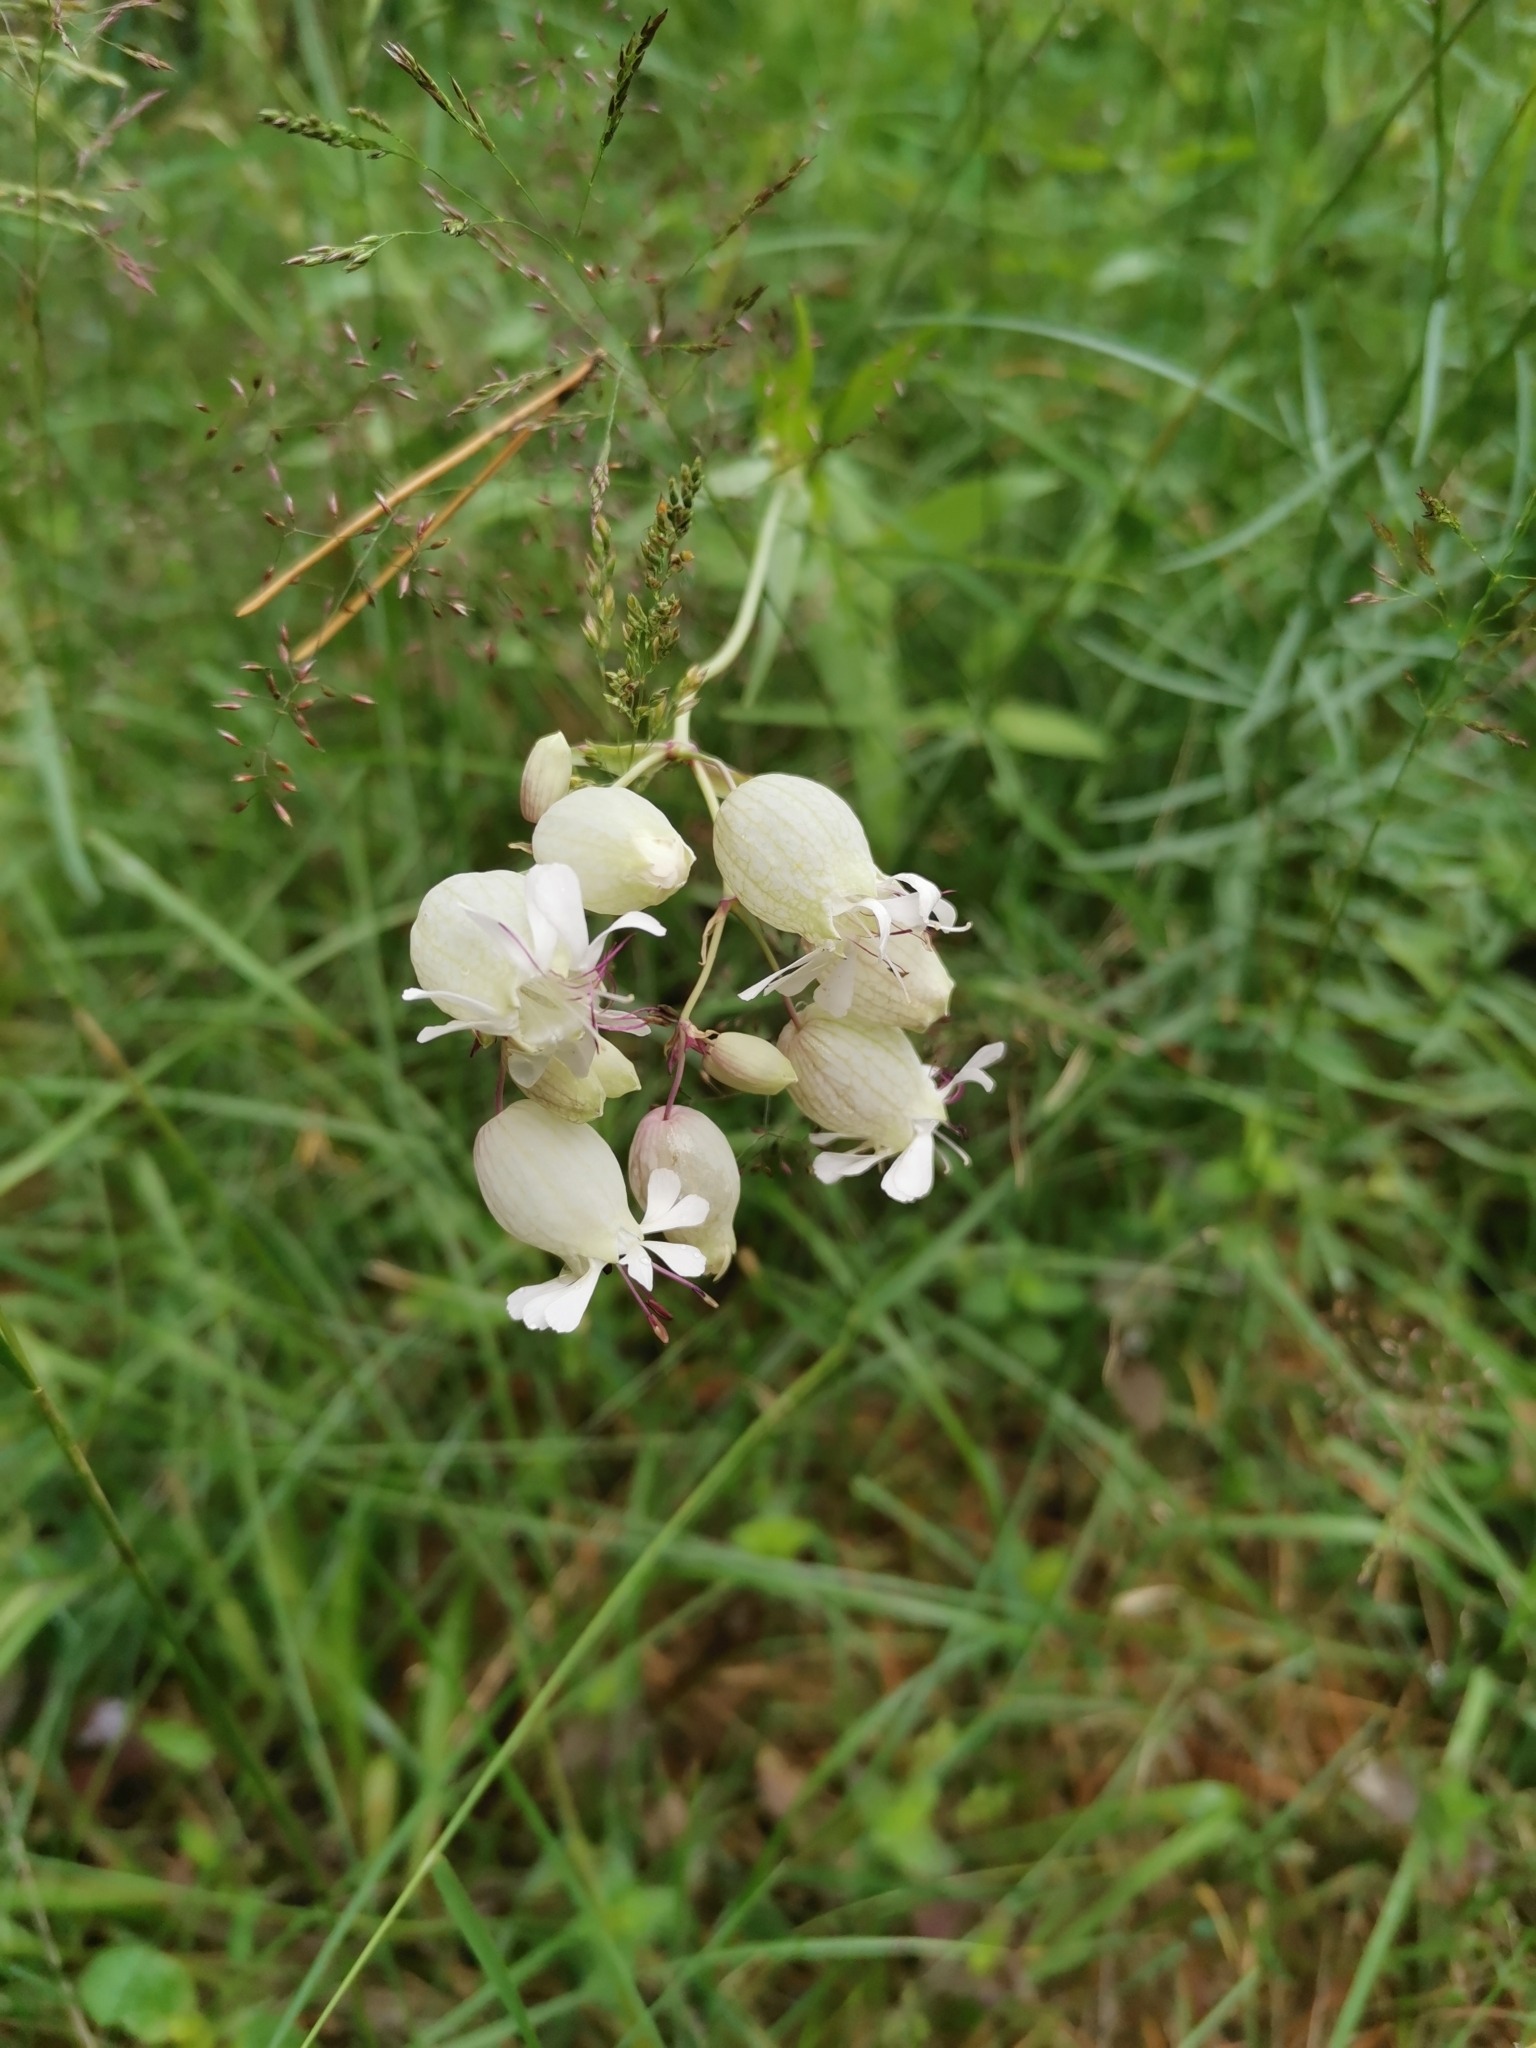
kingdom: Plantae
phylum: Tracheophyta
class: Magnoliopsida
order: Caryophyllales
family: Caryophyllaceae
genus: Silene
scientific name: Silene vulgaris
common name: Bladder campion
